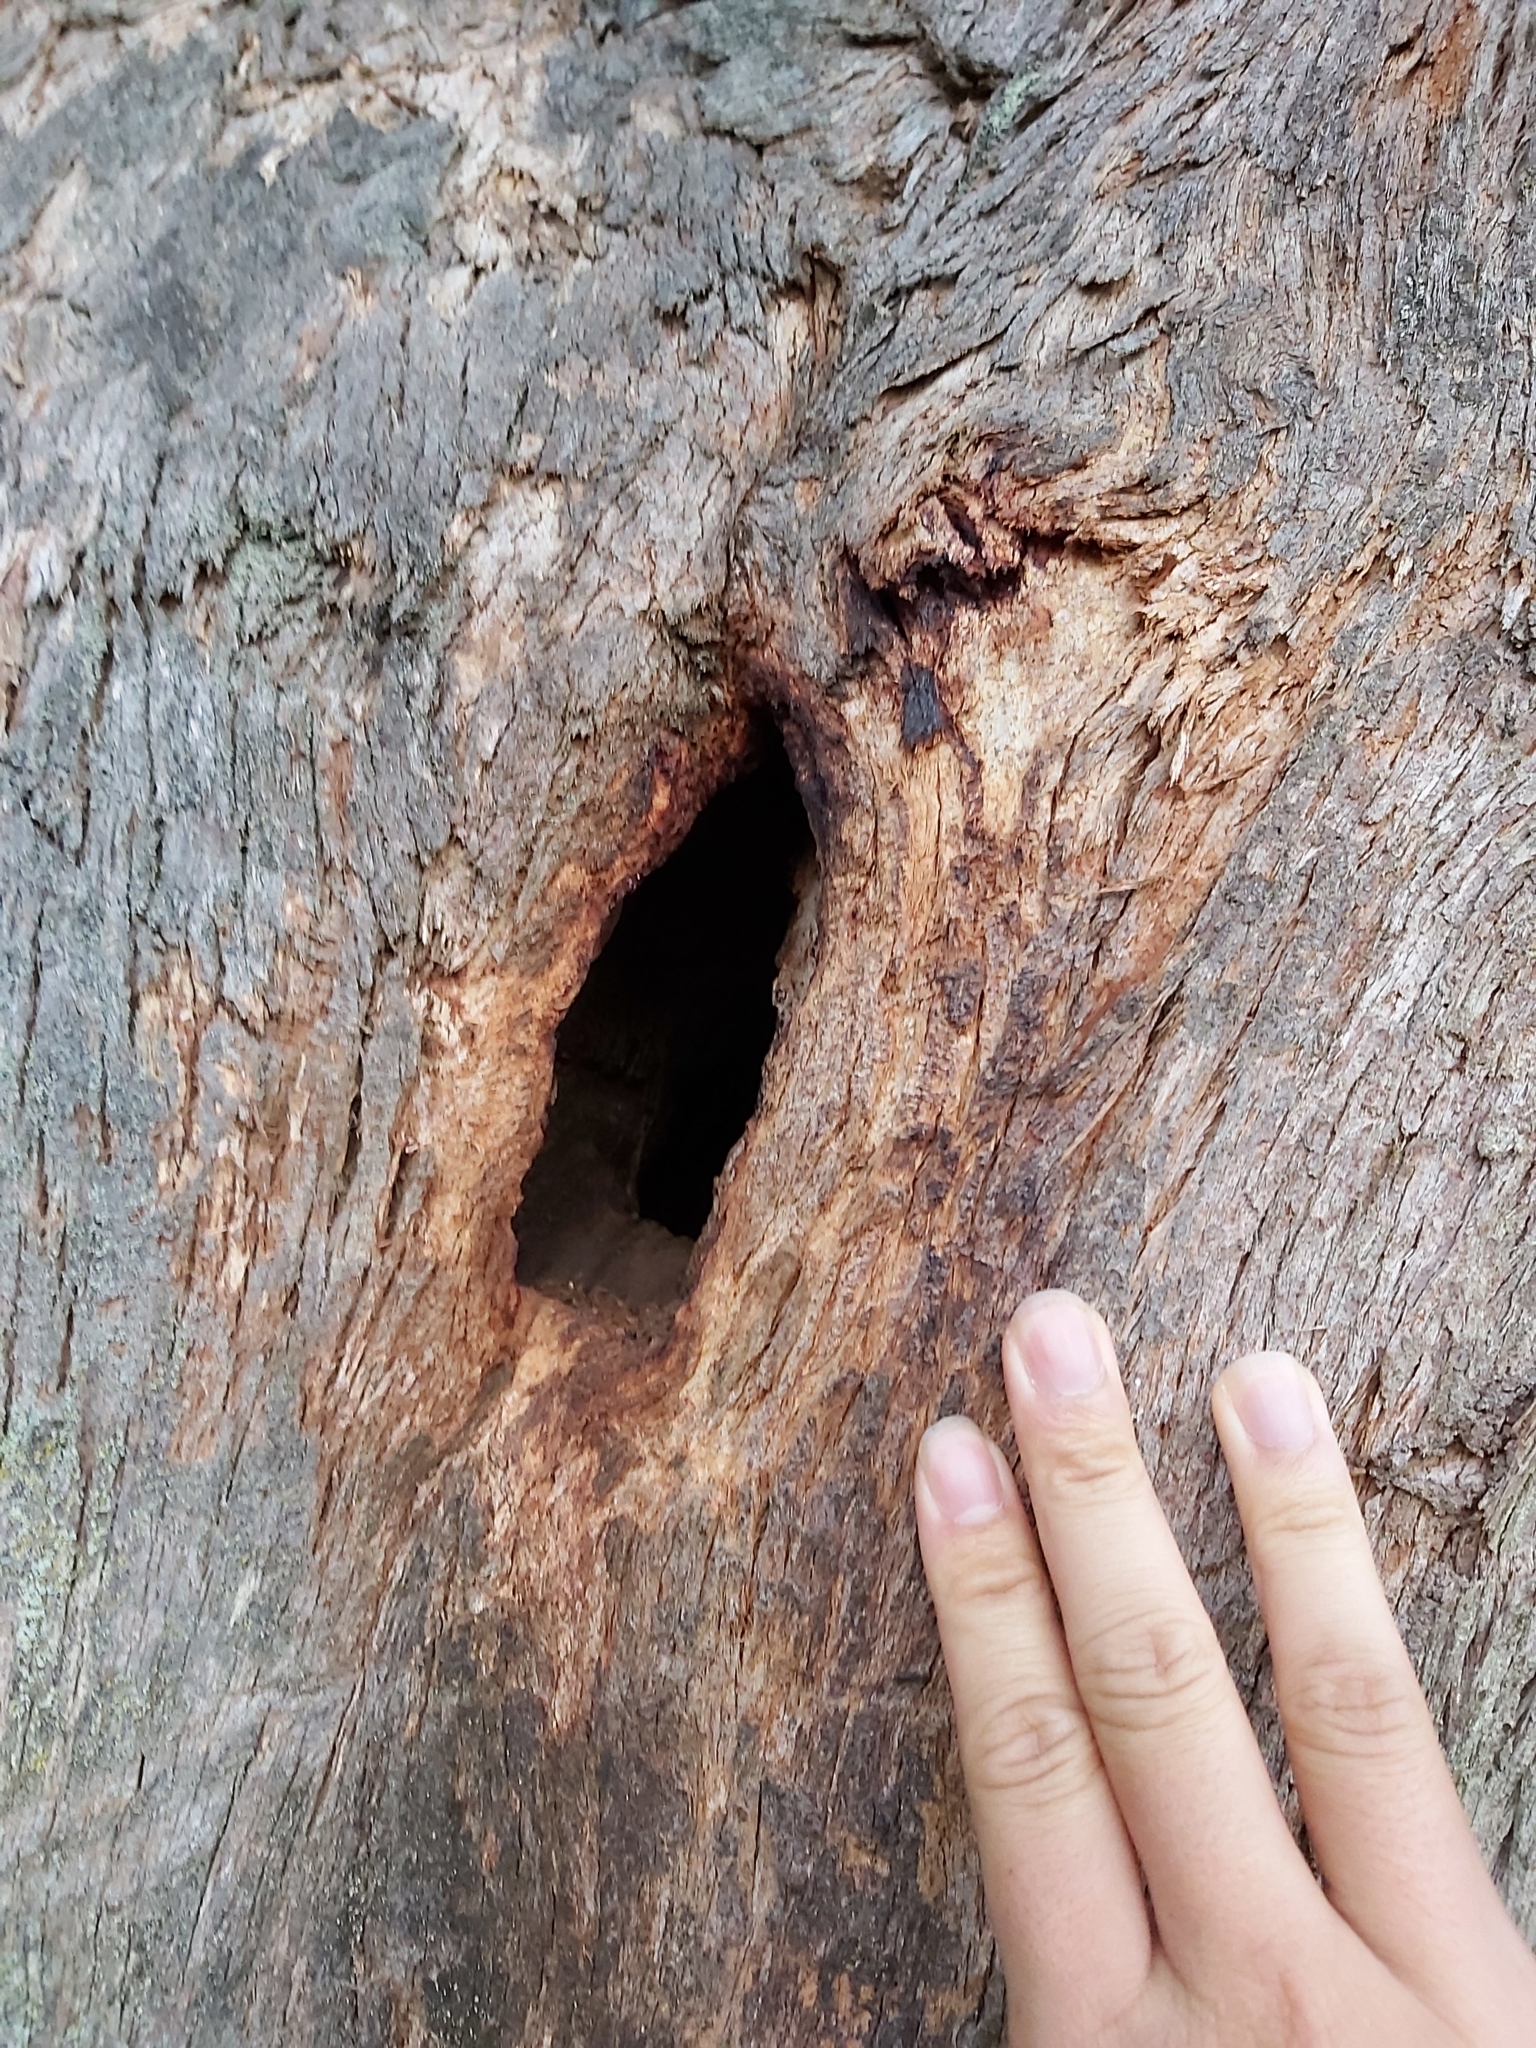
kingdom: Animalia
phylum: Chordata
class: Aves
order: Psittaciformes
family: Psittacidae
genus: Trichoglossus
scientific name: Trichoglossus haematodus
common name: Coconut lorikeet
